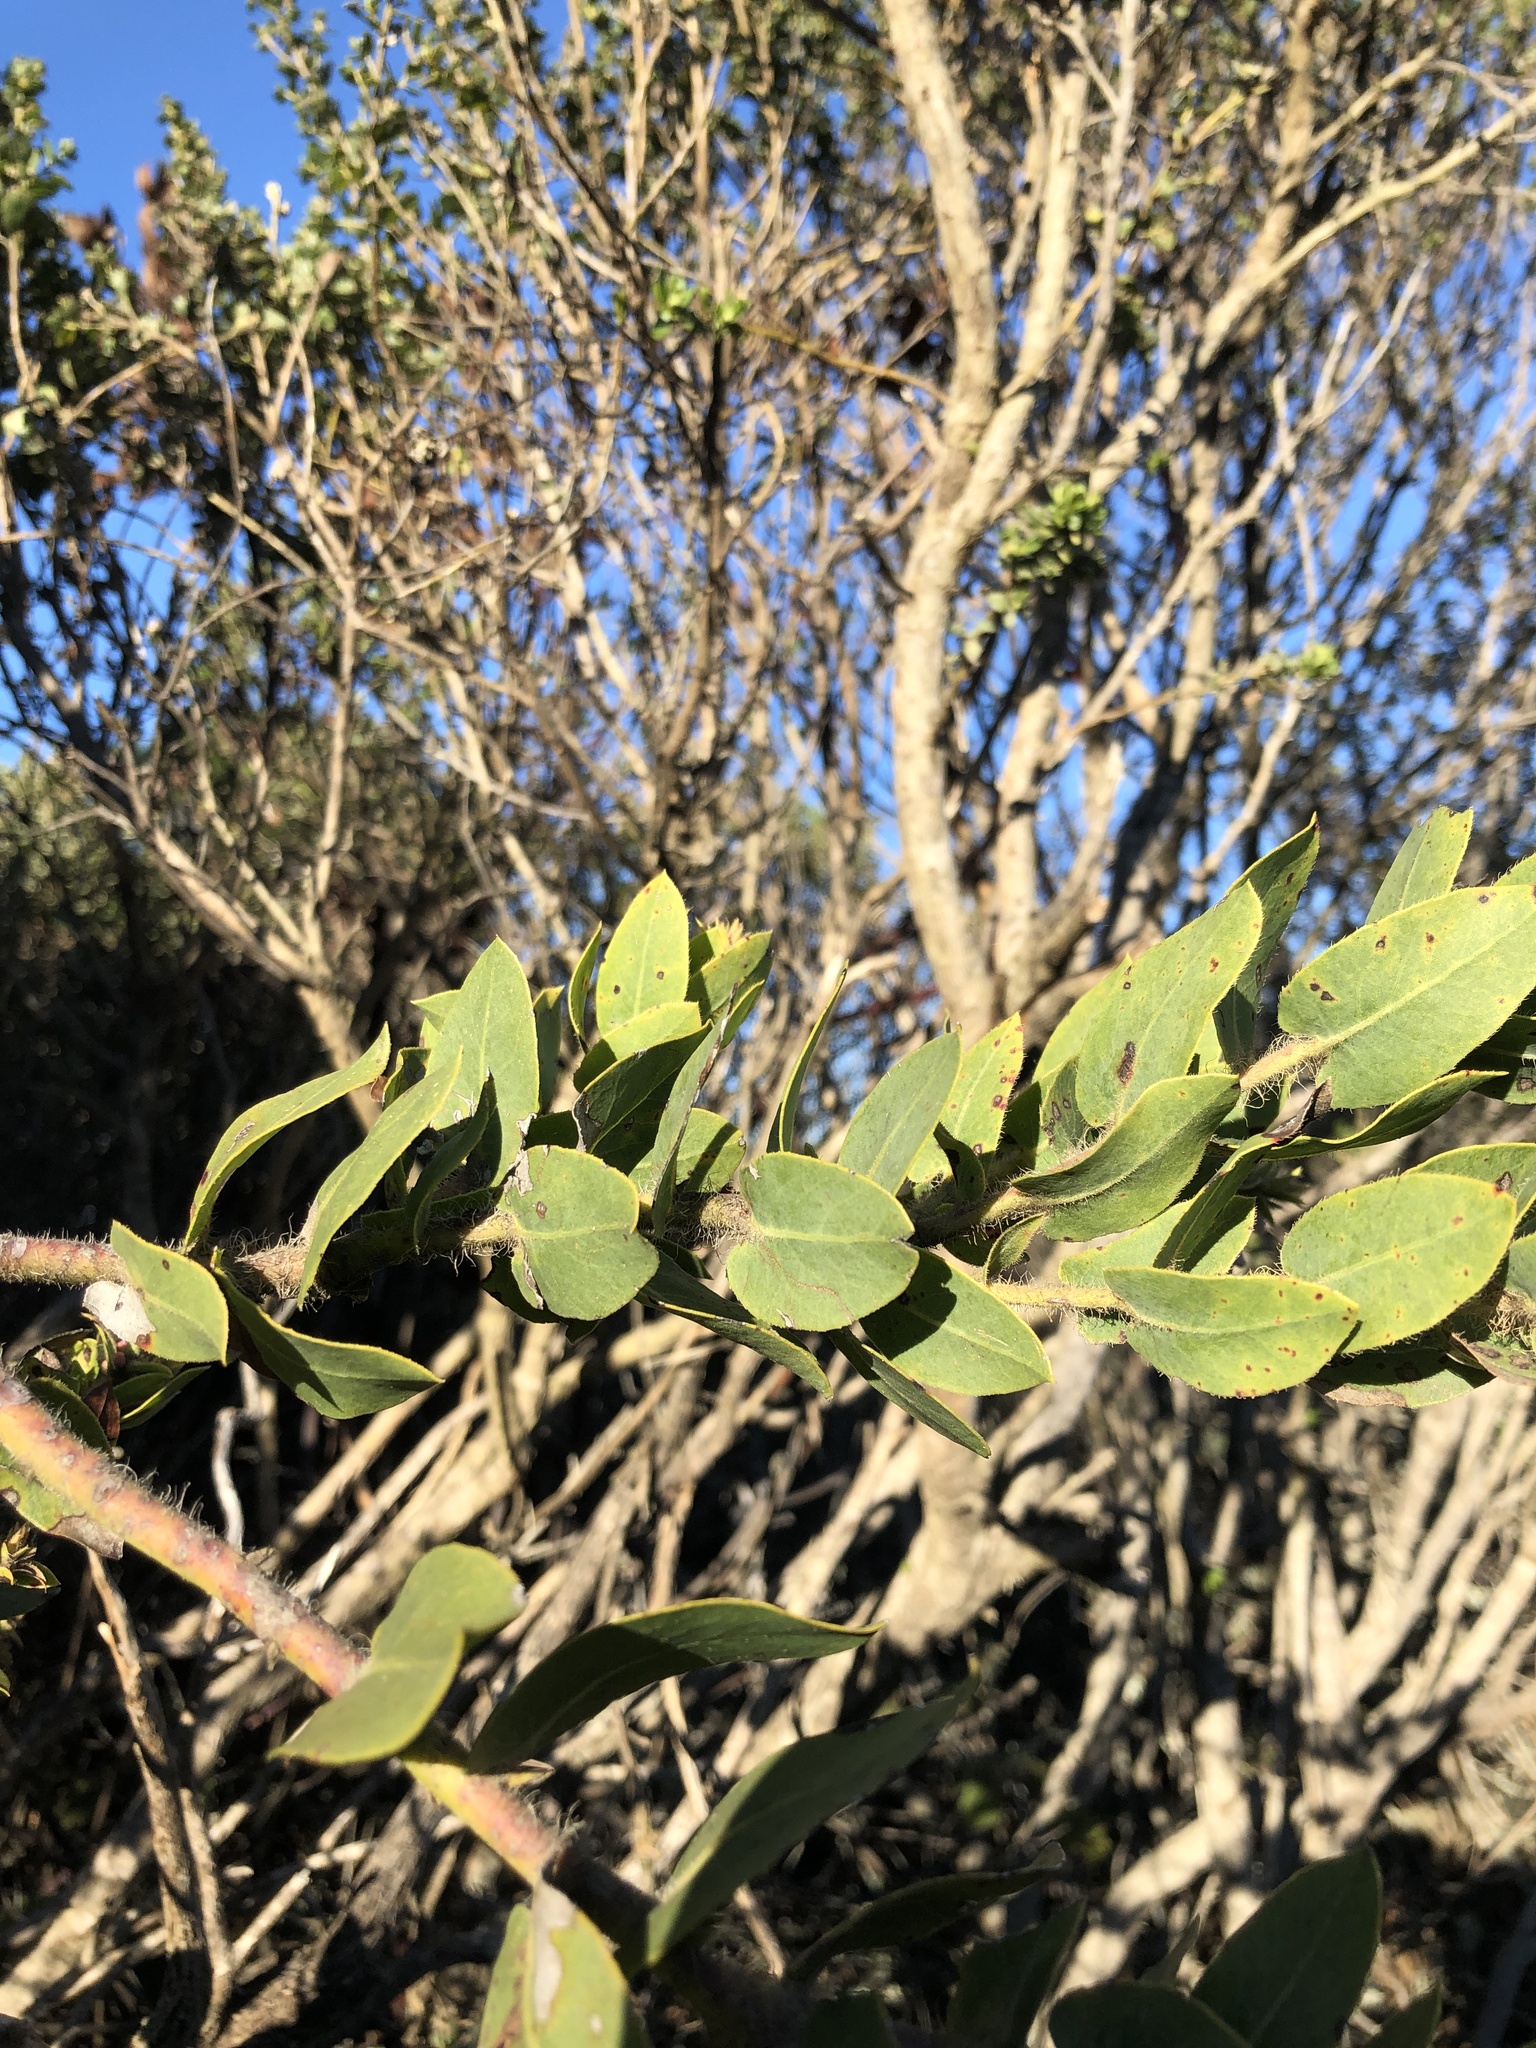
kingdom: Plantae
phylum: Tracheophyta
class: Magnoliopsida
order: Ericales
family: Ericaceae
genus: Arctostaphylos
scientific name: Arctostaphylos montaraensis
